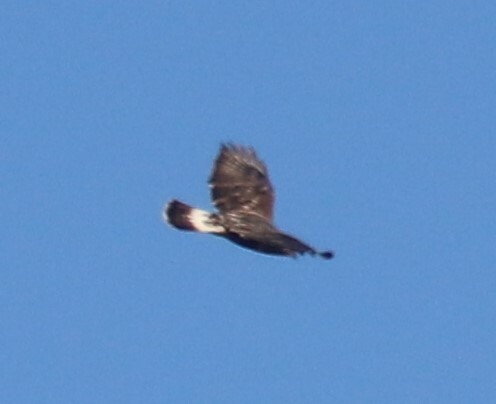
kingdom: Animalia
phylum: Chordata
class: Aves
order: Accipitriformes
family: Accipitridae
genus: Buteo
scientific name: Buteo lagopus
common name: Rough-legged buzzard
